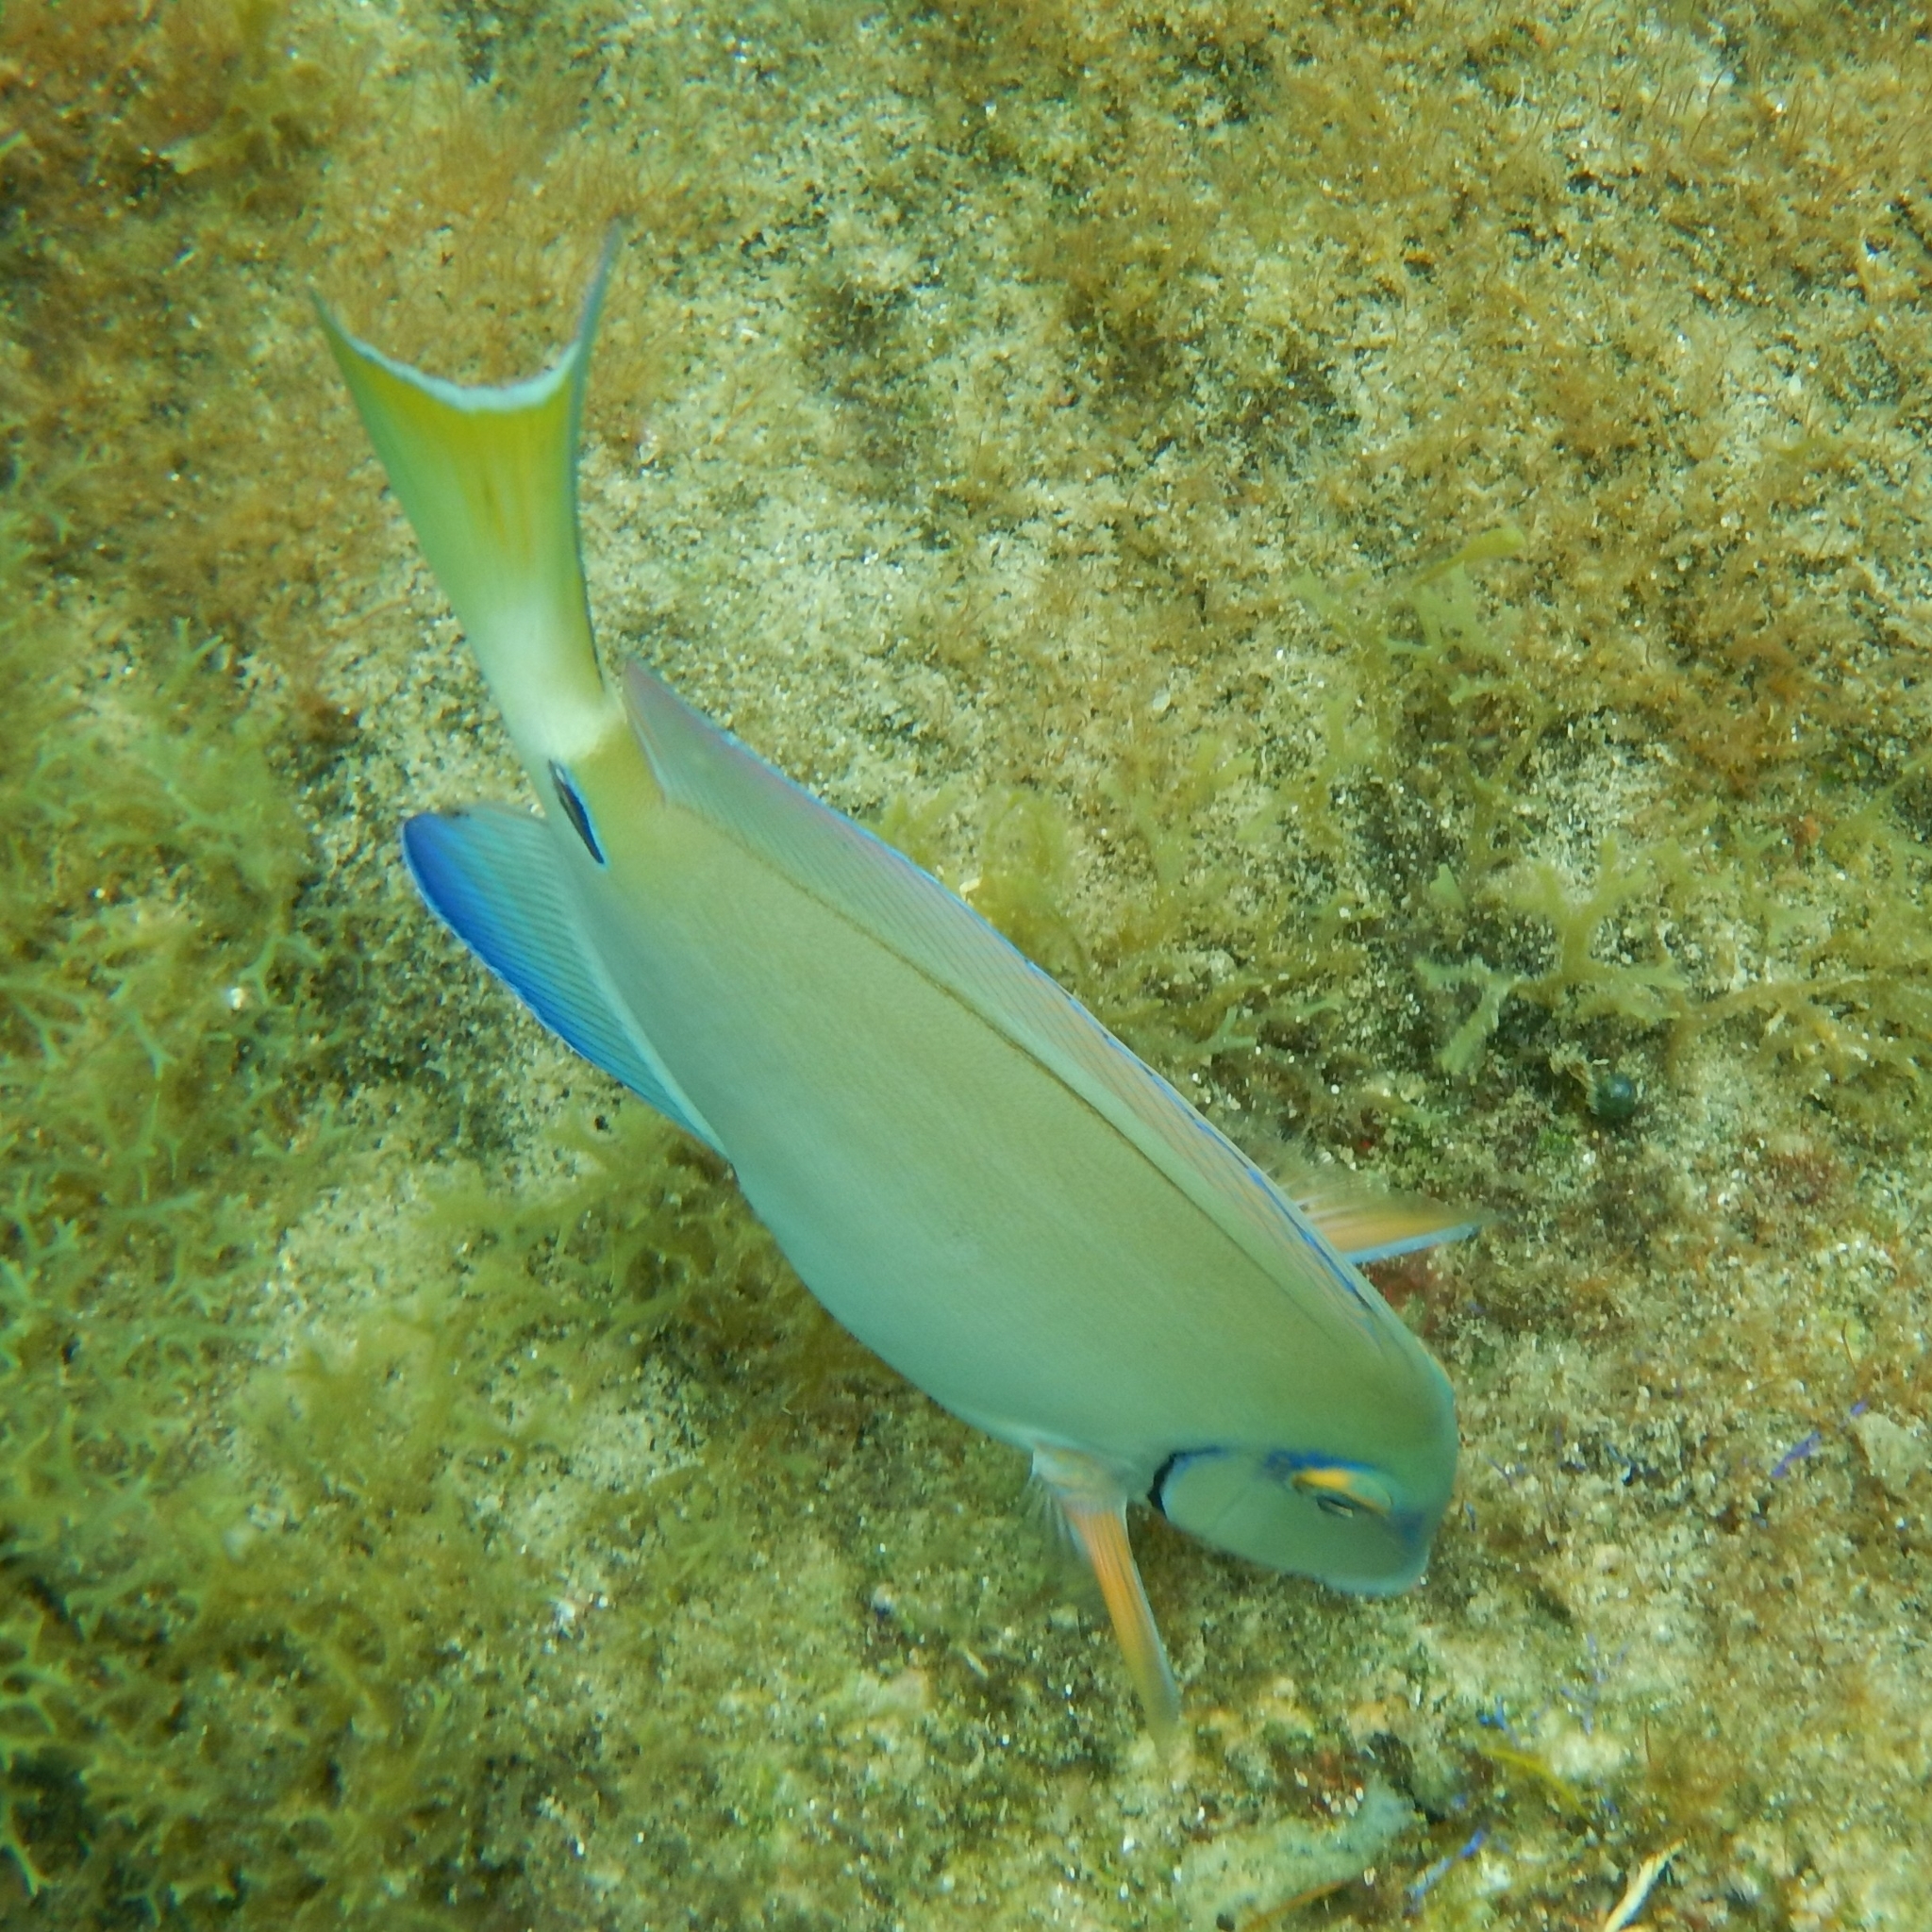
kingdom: Animalia
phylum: Chordata
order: Perciformes
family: Acanthuridae
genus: Acanthurus
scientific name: Acanthurus bahianus
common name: Ocean surgeon
